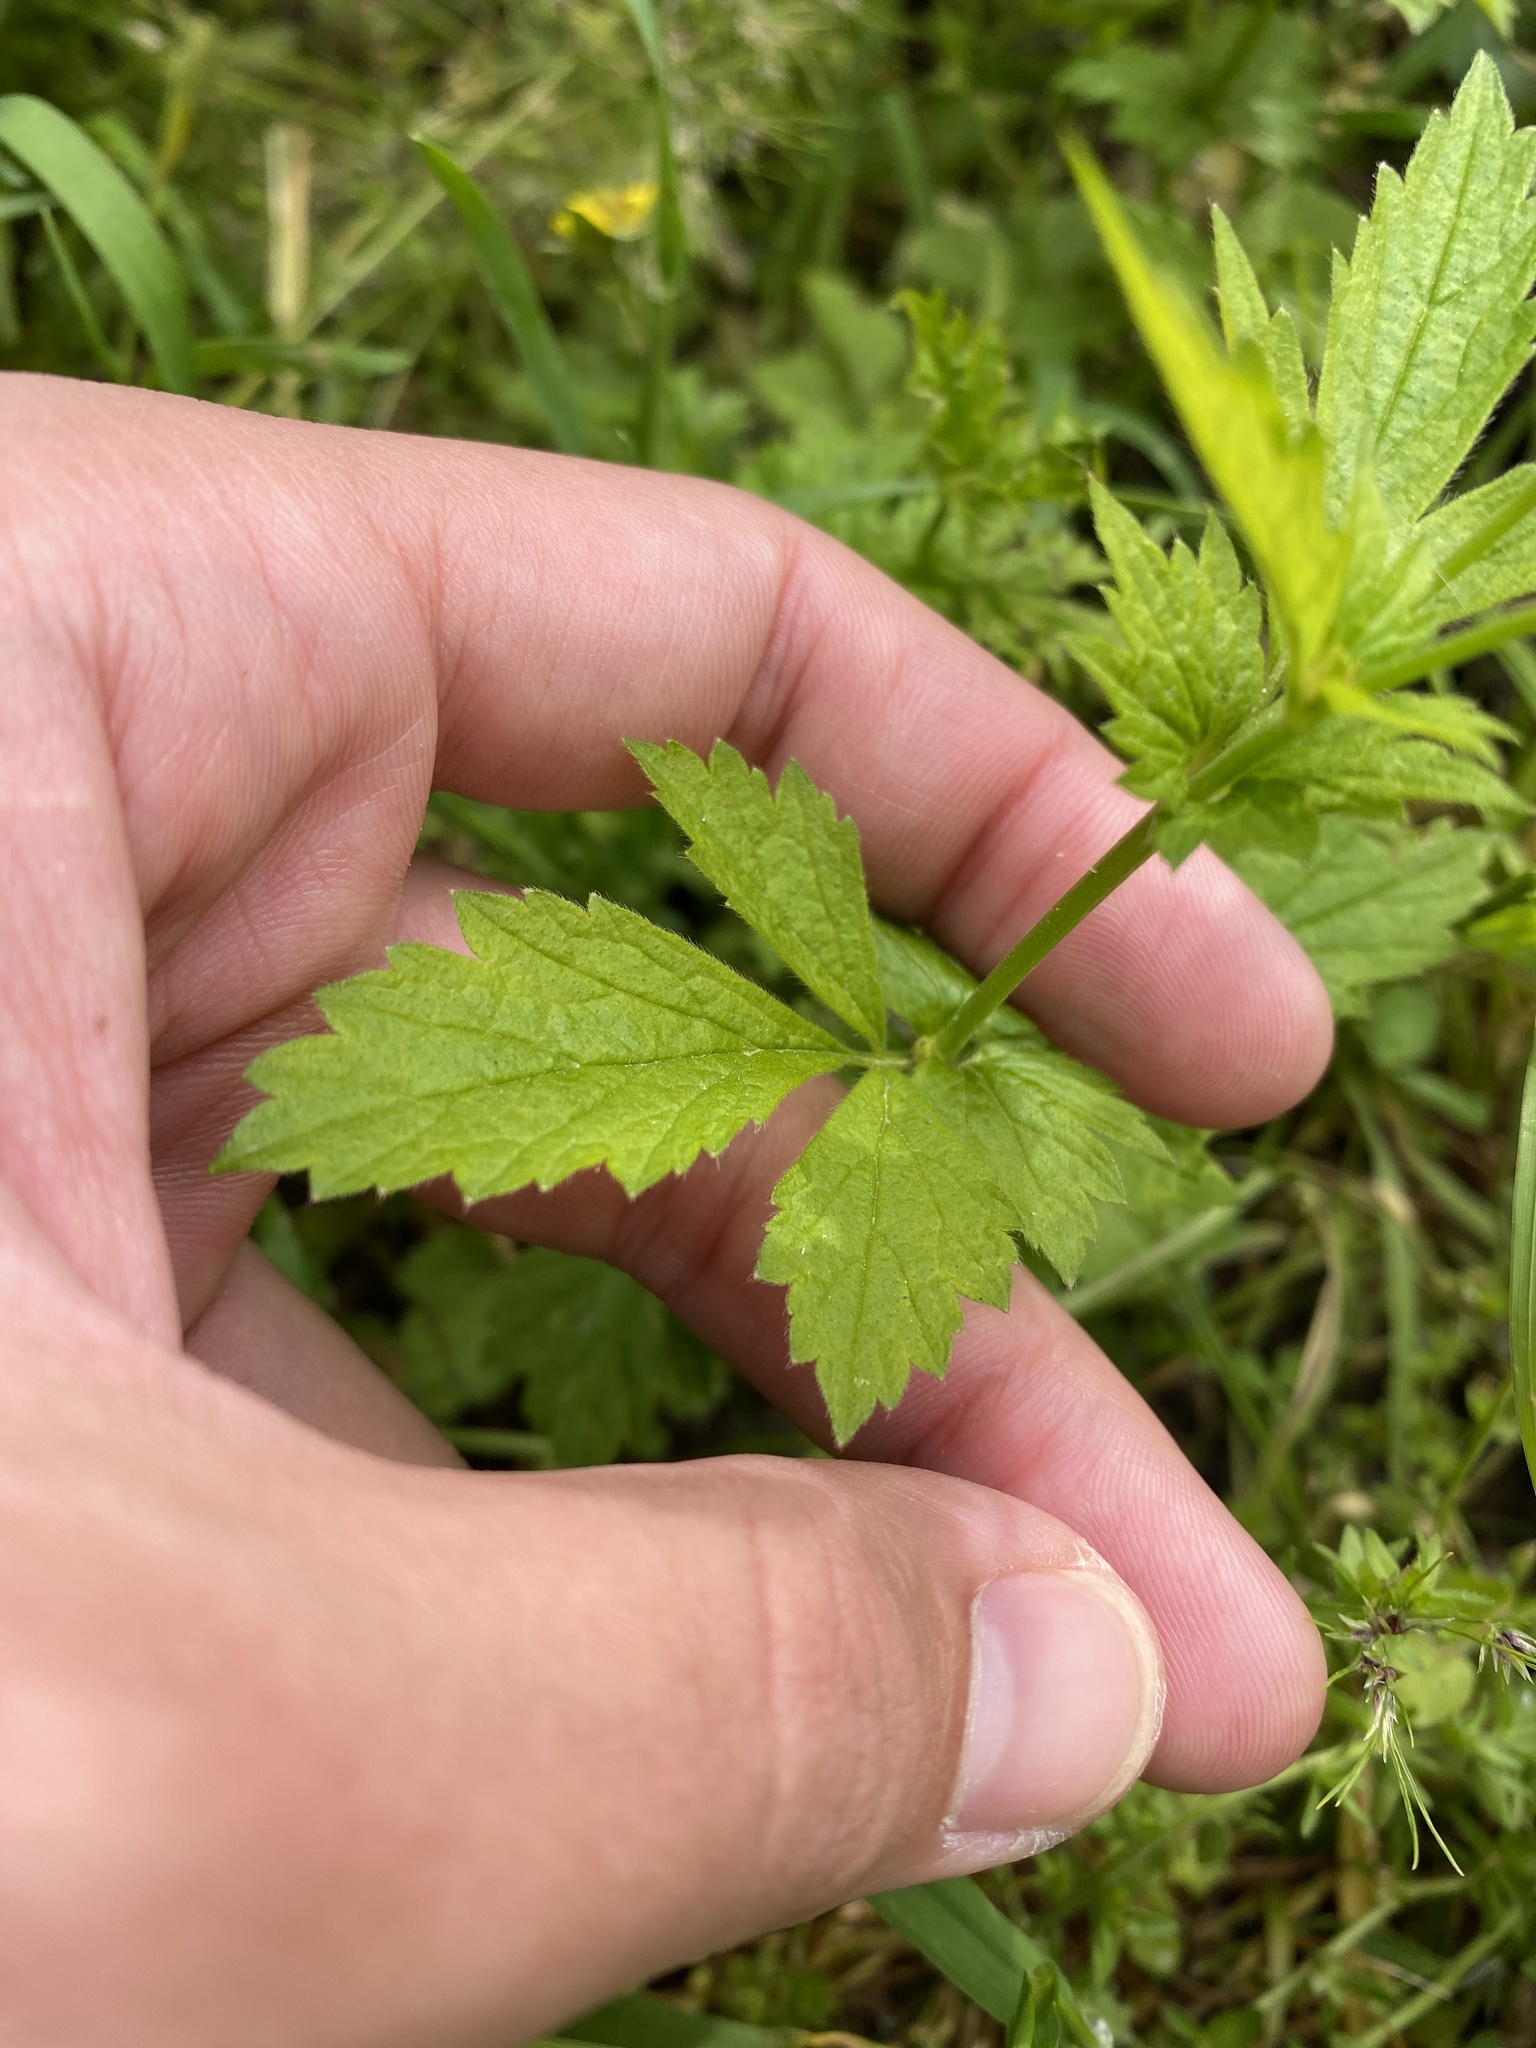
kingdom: Plantae
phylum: Tracheophyta
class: Magnoliopsida
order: Rosales
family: Rosaceae
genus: Geum
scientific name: Geum urbanum
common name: Wood avens
